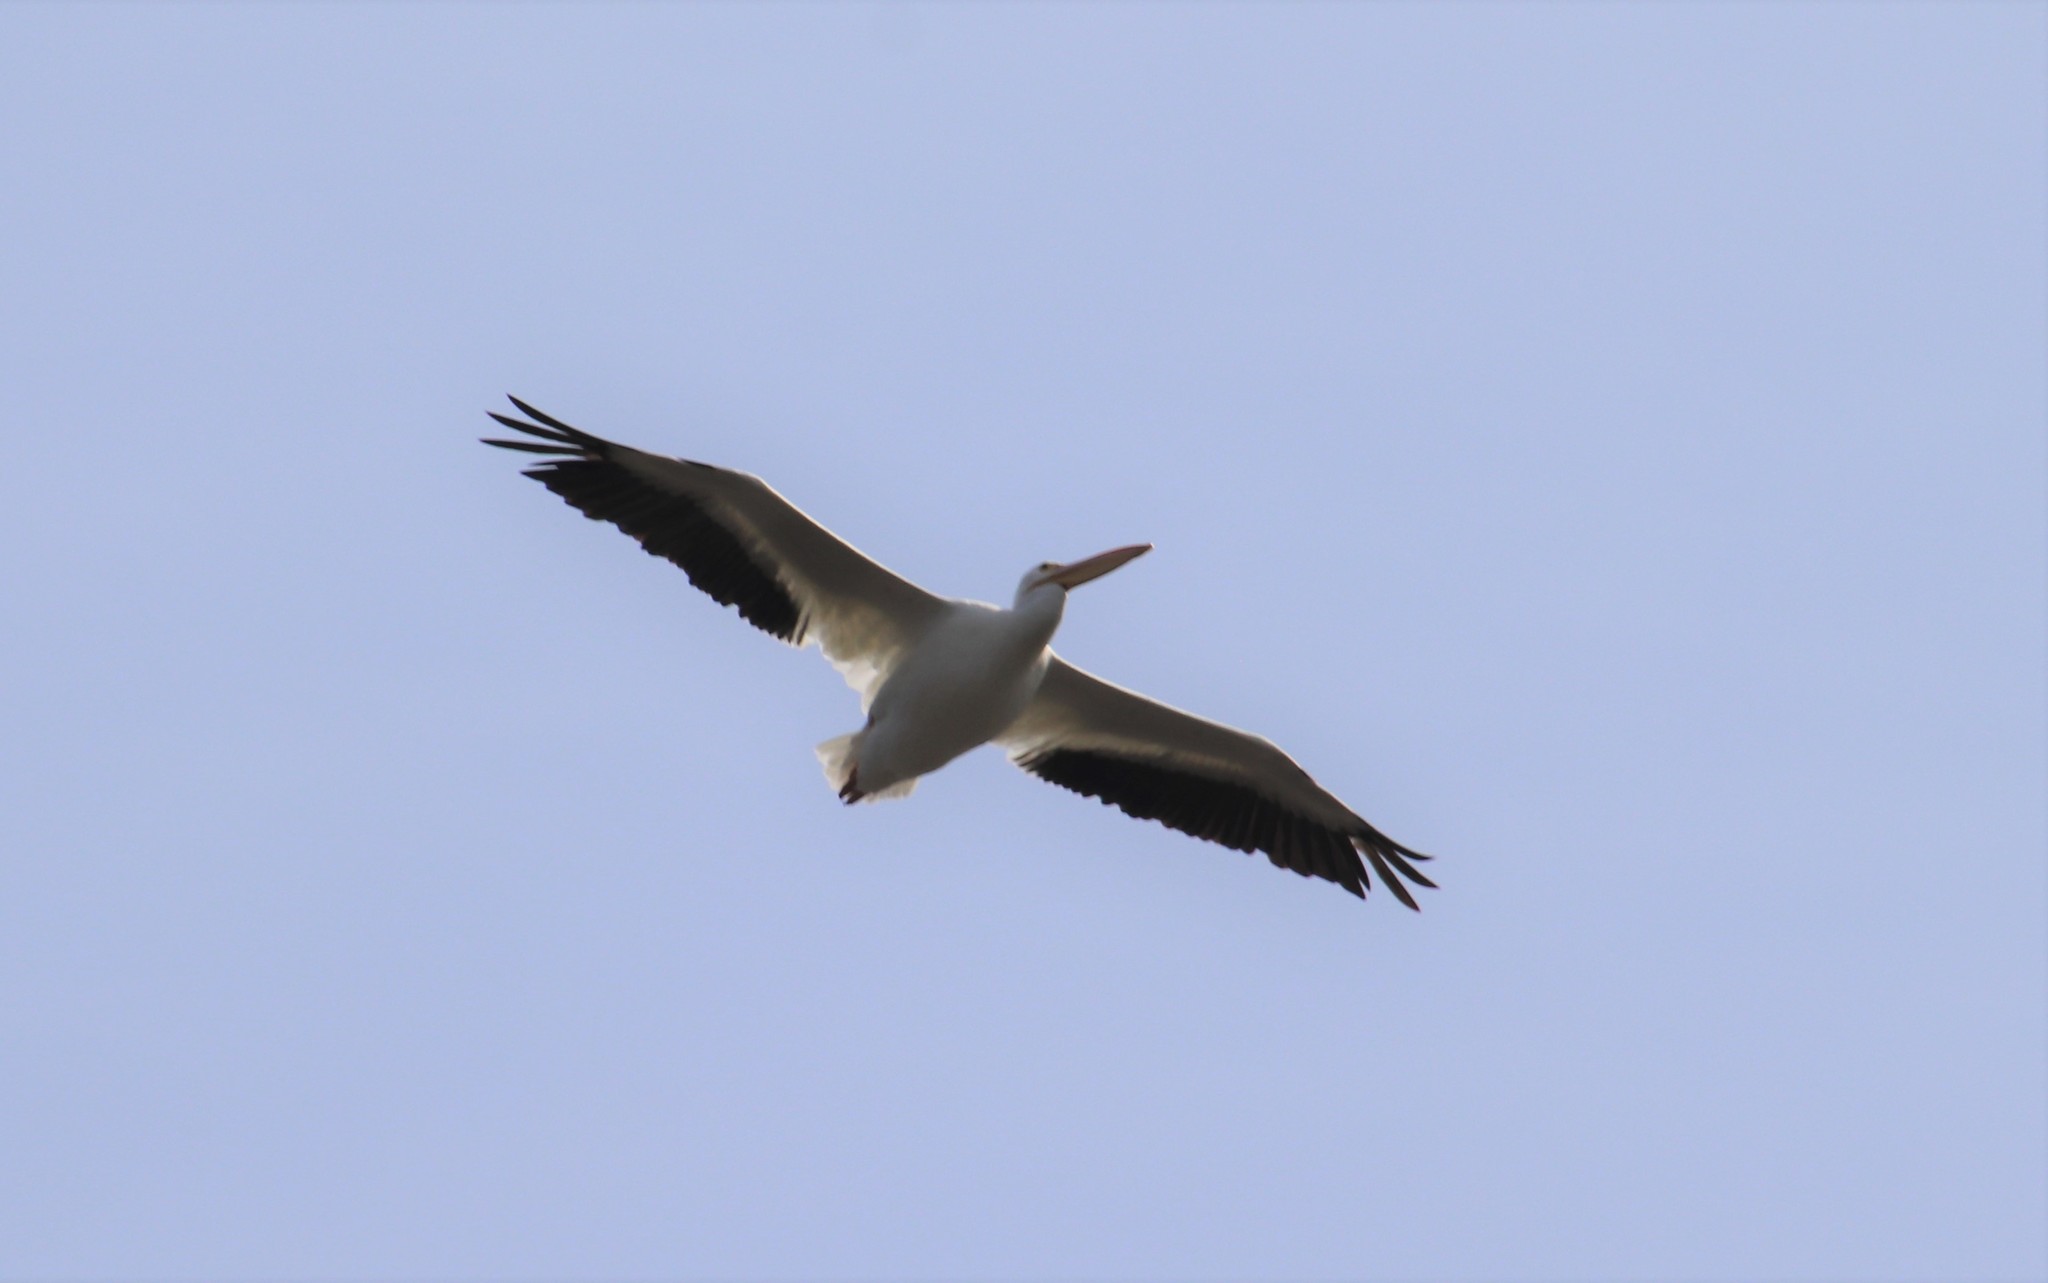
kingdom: Animalia
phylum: Chordata
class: Aves
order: Pelecaniformes
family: Pelecanidae
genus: Pelecanus
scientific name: Pelecanus erythrorhynchos
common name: American white pelican
